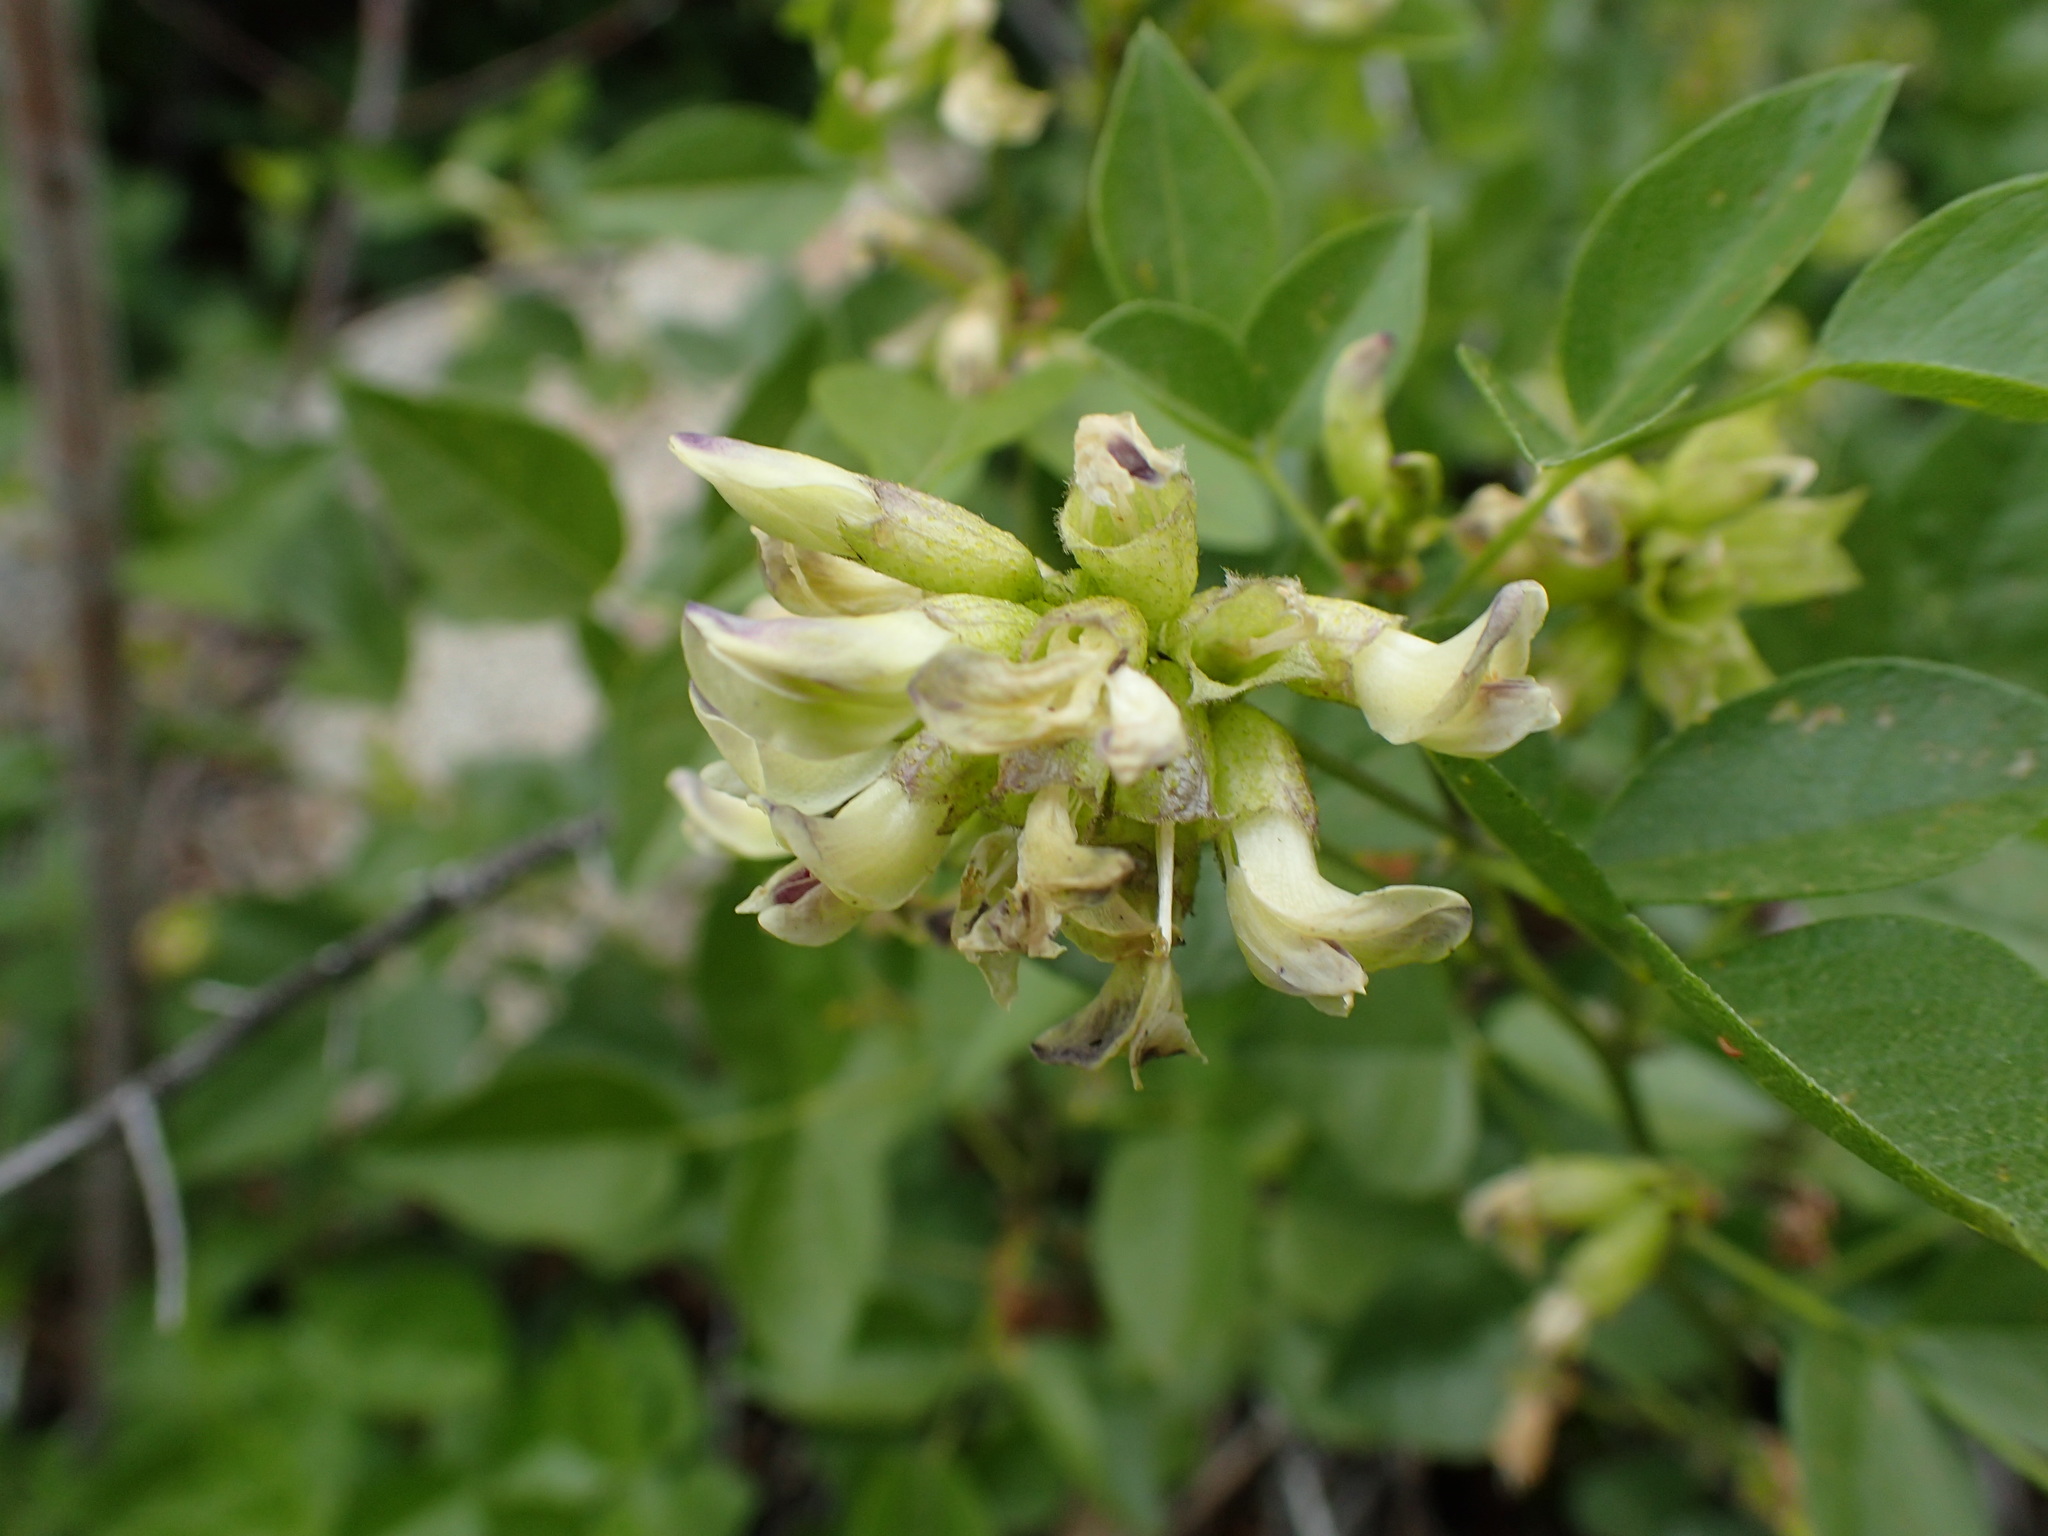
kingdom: Plantae
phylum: Tracheophyta
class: Magnoliopsida
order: Fabales
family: Fabaceae
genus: Rupertia
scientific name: Rupertia physodes
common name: California-tea
